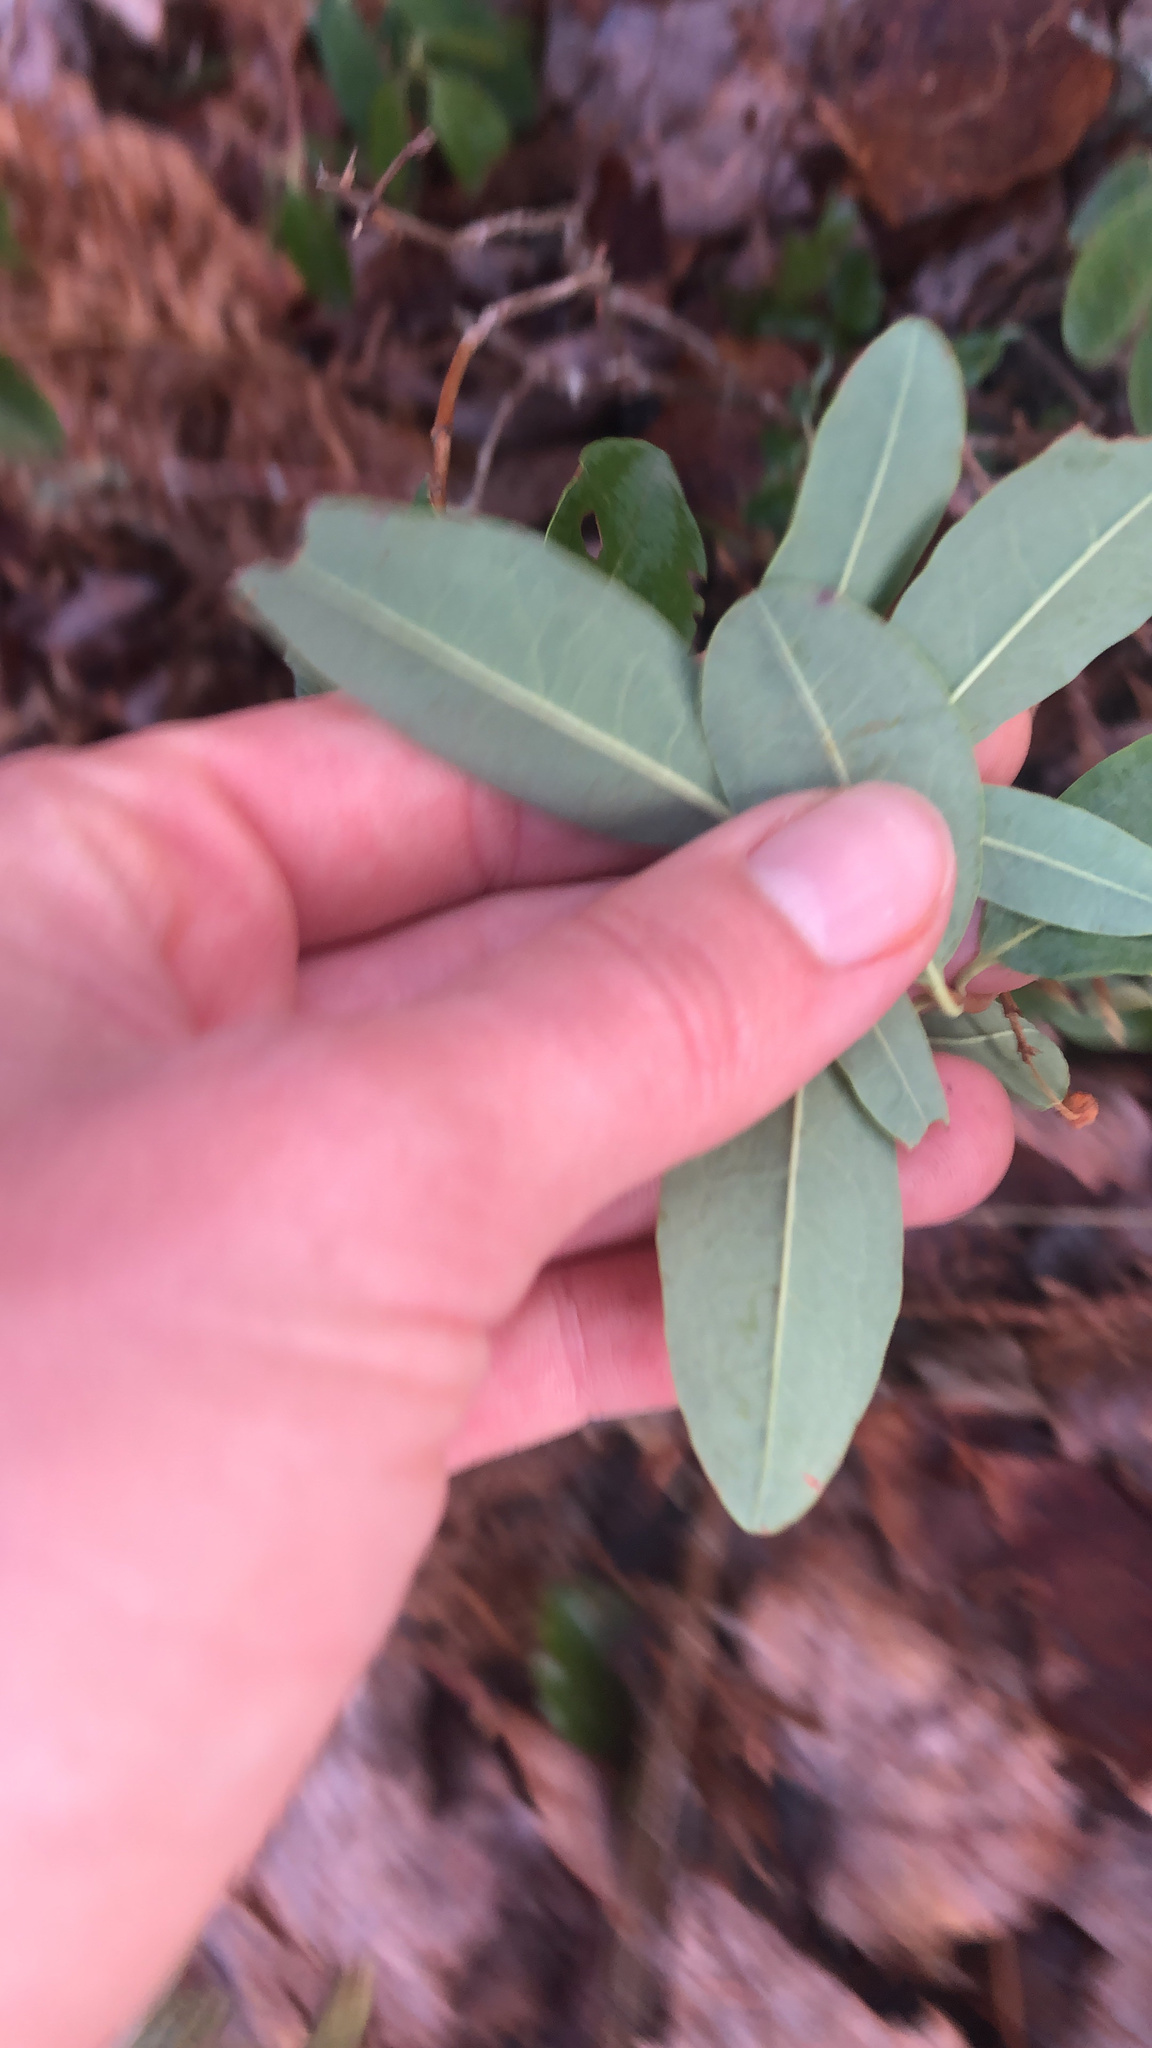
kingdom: Plantae
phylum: Tracheophyta
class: Magnoliopsida
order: Ericales
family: Ericaceae
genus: Kalmia
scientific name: Kalmia angustifolia
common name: Sheep-laurel
